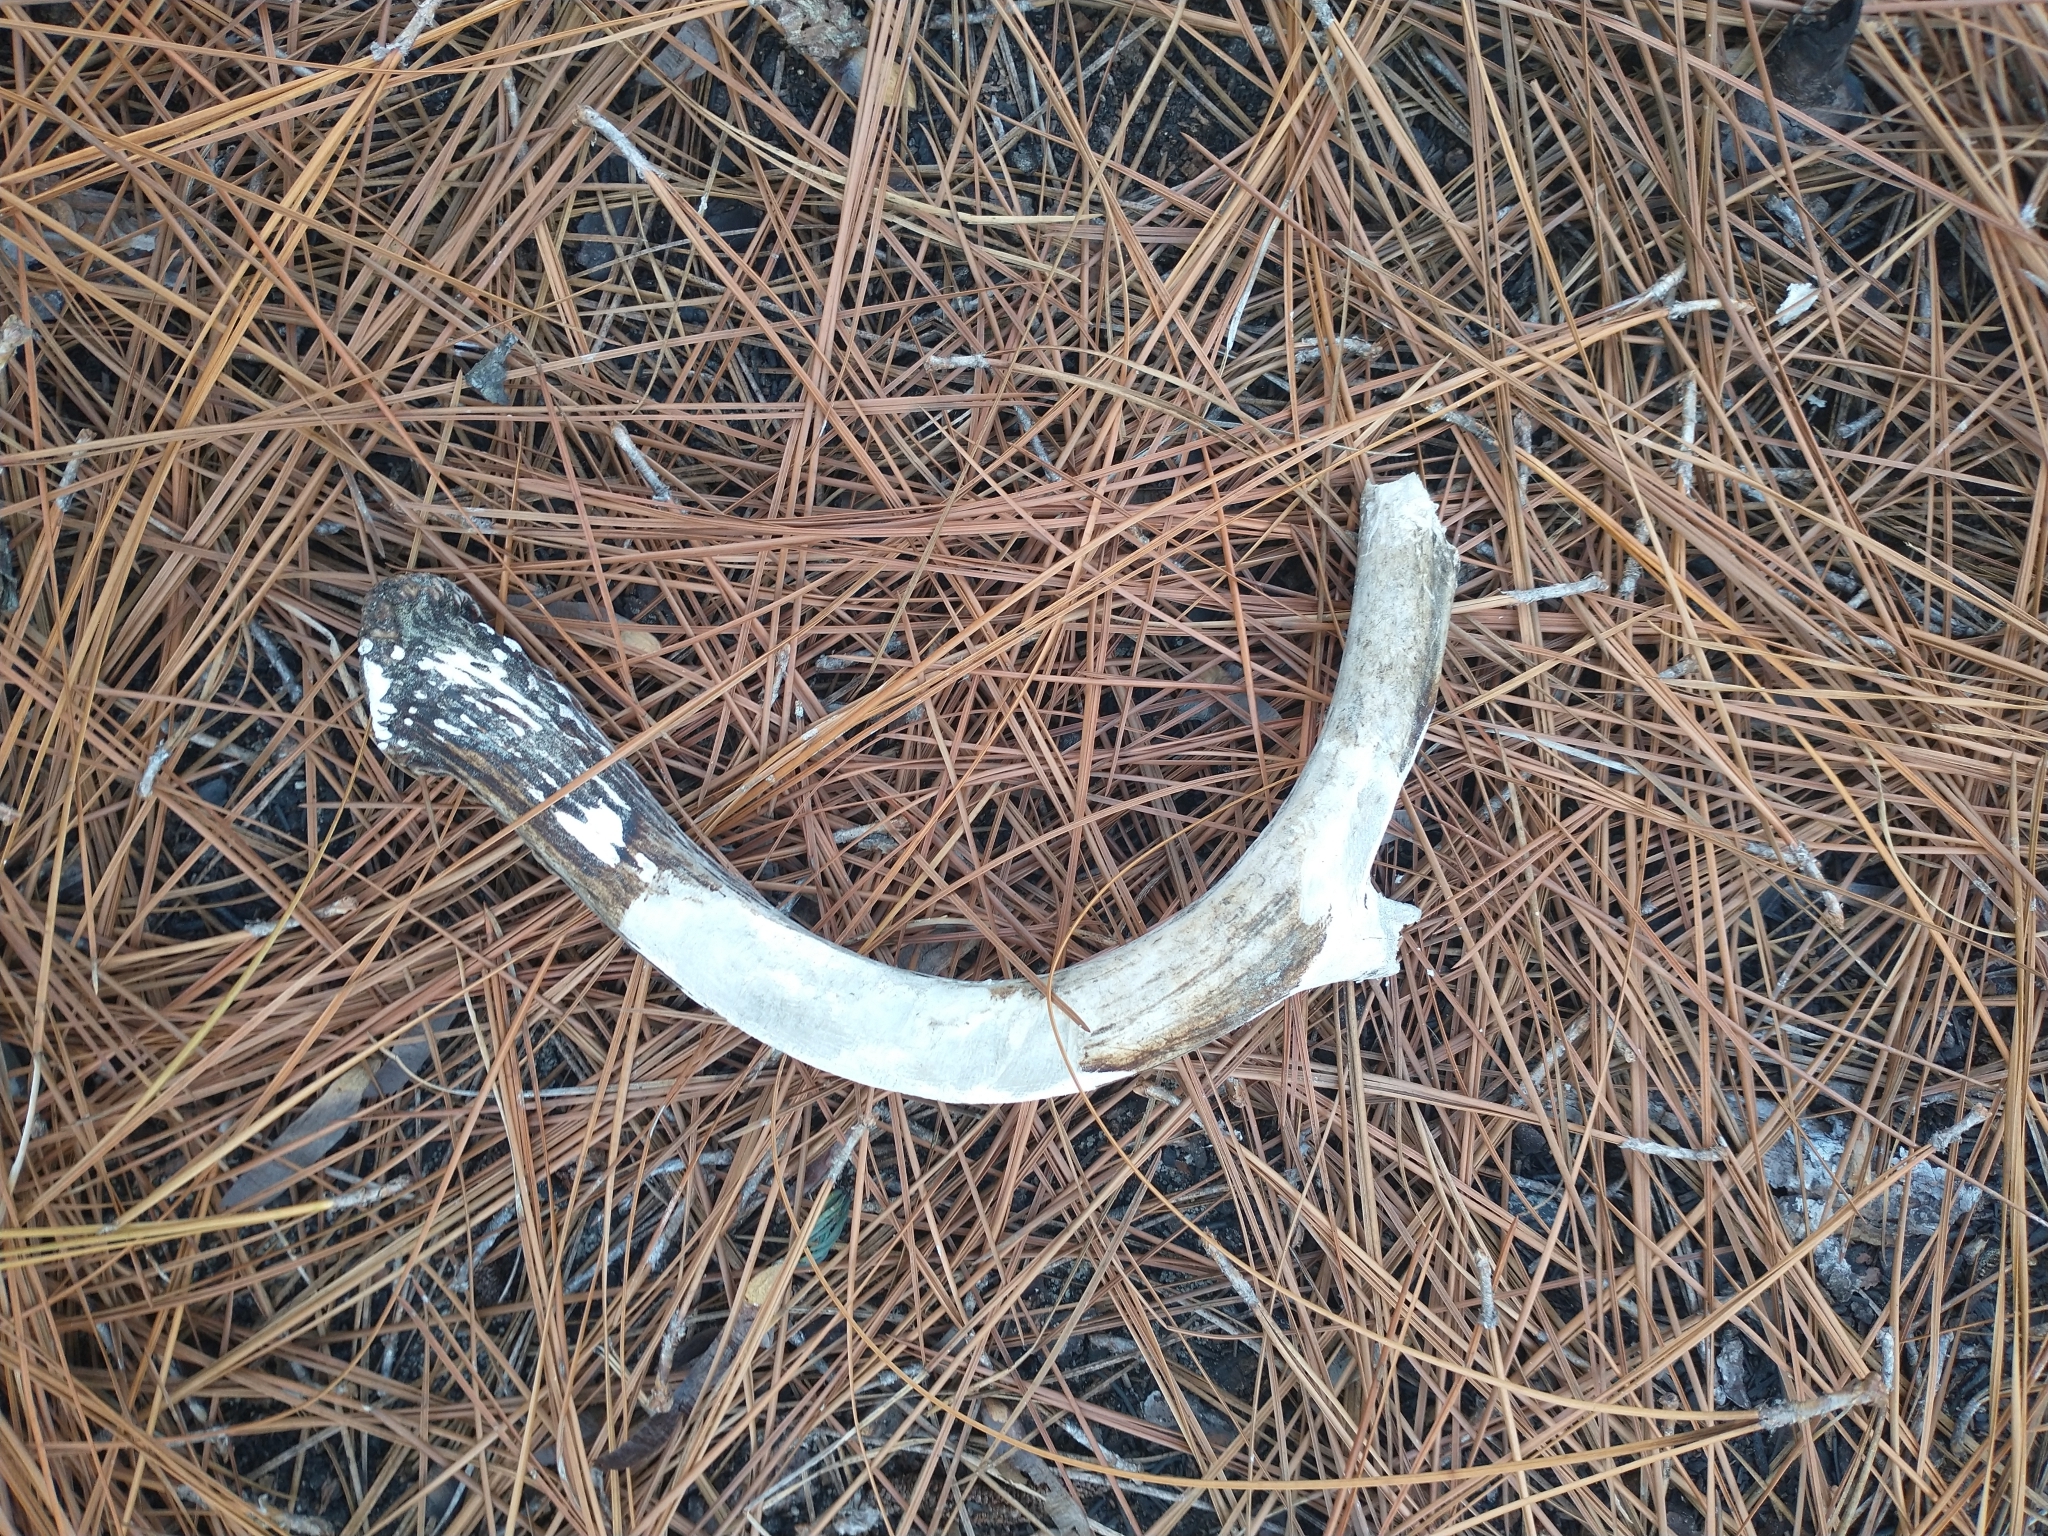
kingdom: Animalia
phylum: Chordata
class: Mammalia
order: Artiodactyla
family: Cervidae
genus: Odocoileus
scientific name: Odocoileus virginianus
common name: White-tailed deer
